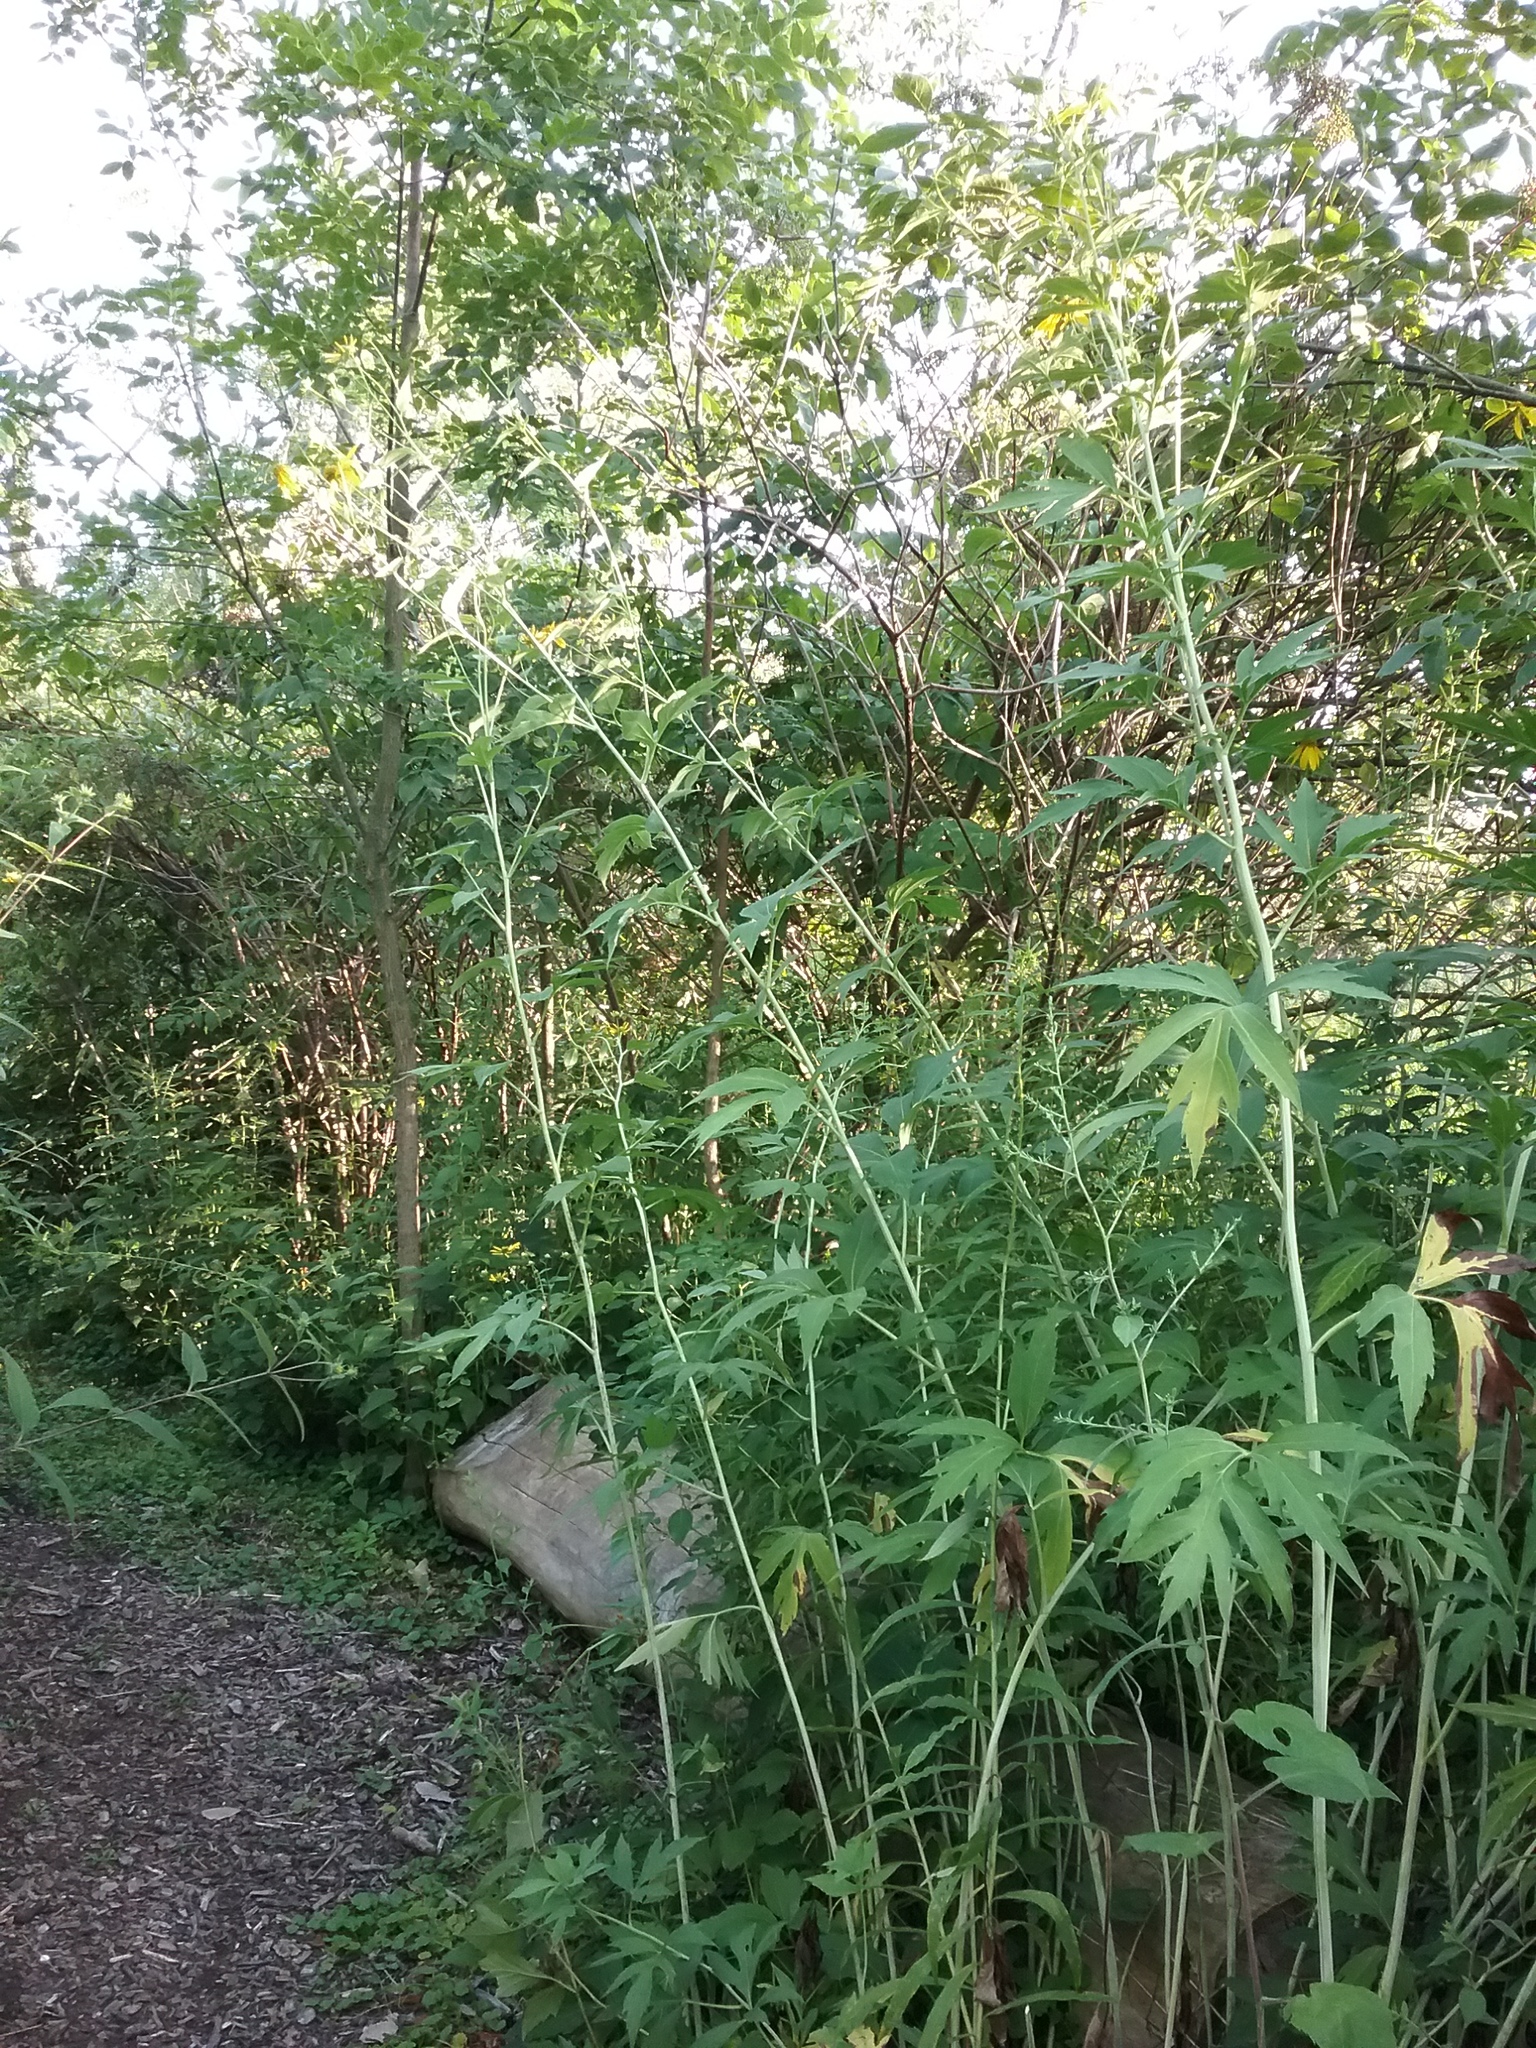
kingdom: Plantae
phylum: Tracheophyta
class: Magnoliopsida
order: Asterales
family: Asteraceae
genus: Rudbeckia
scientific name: Rudbeckia laciniata
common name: Coneflower
